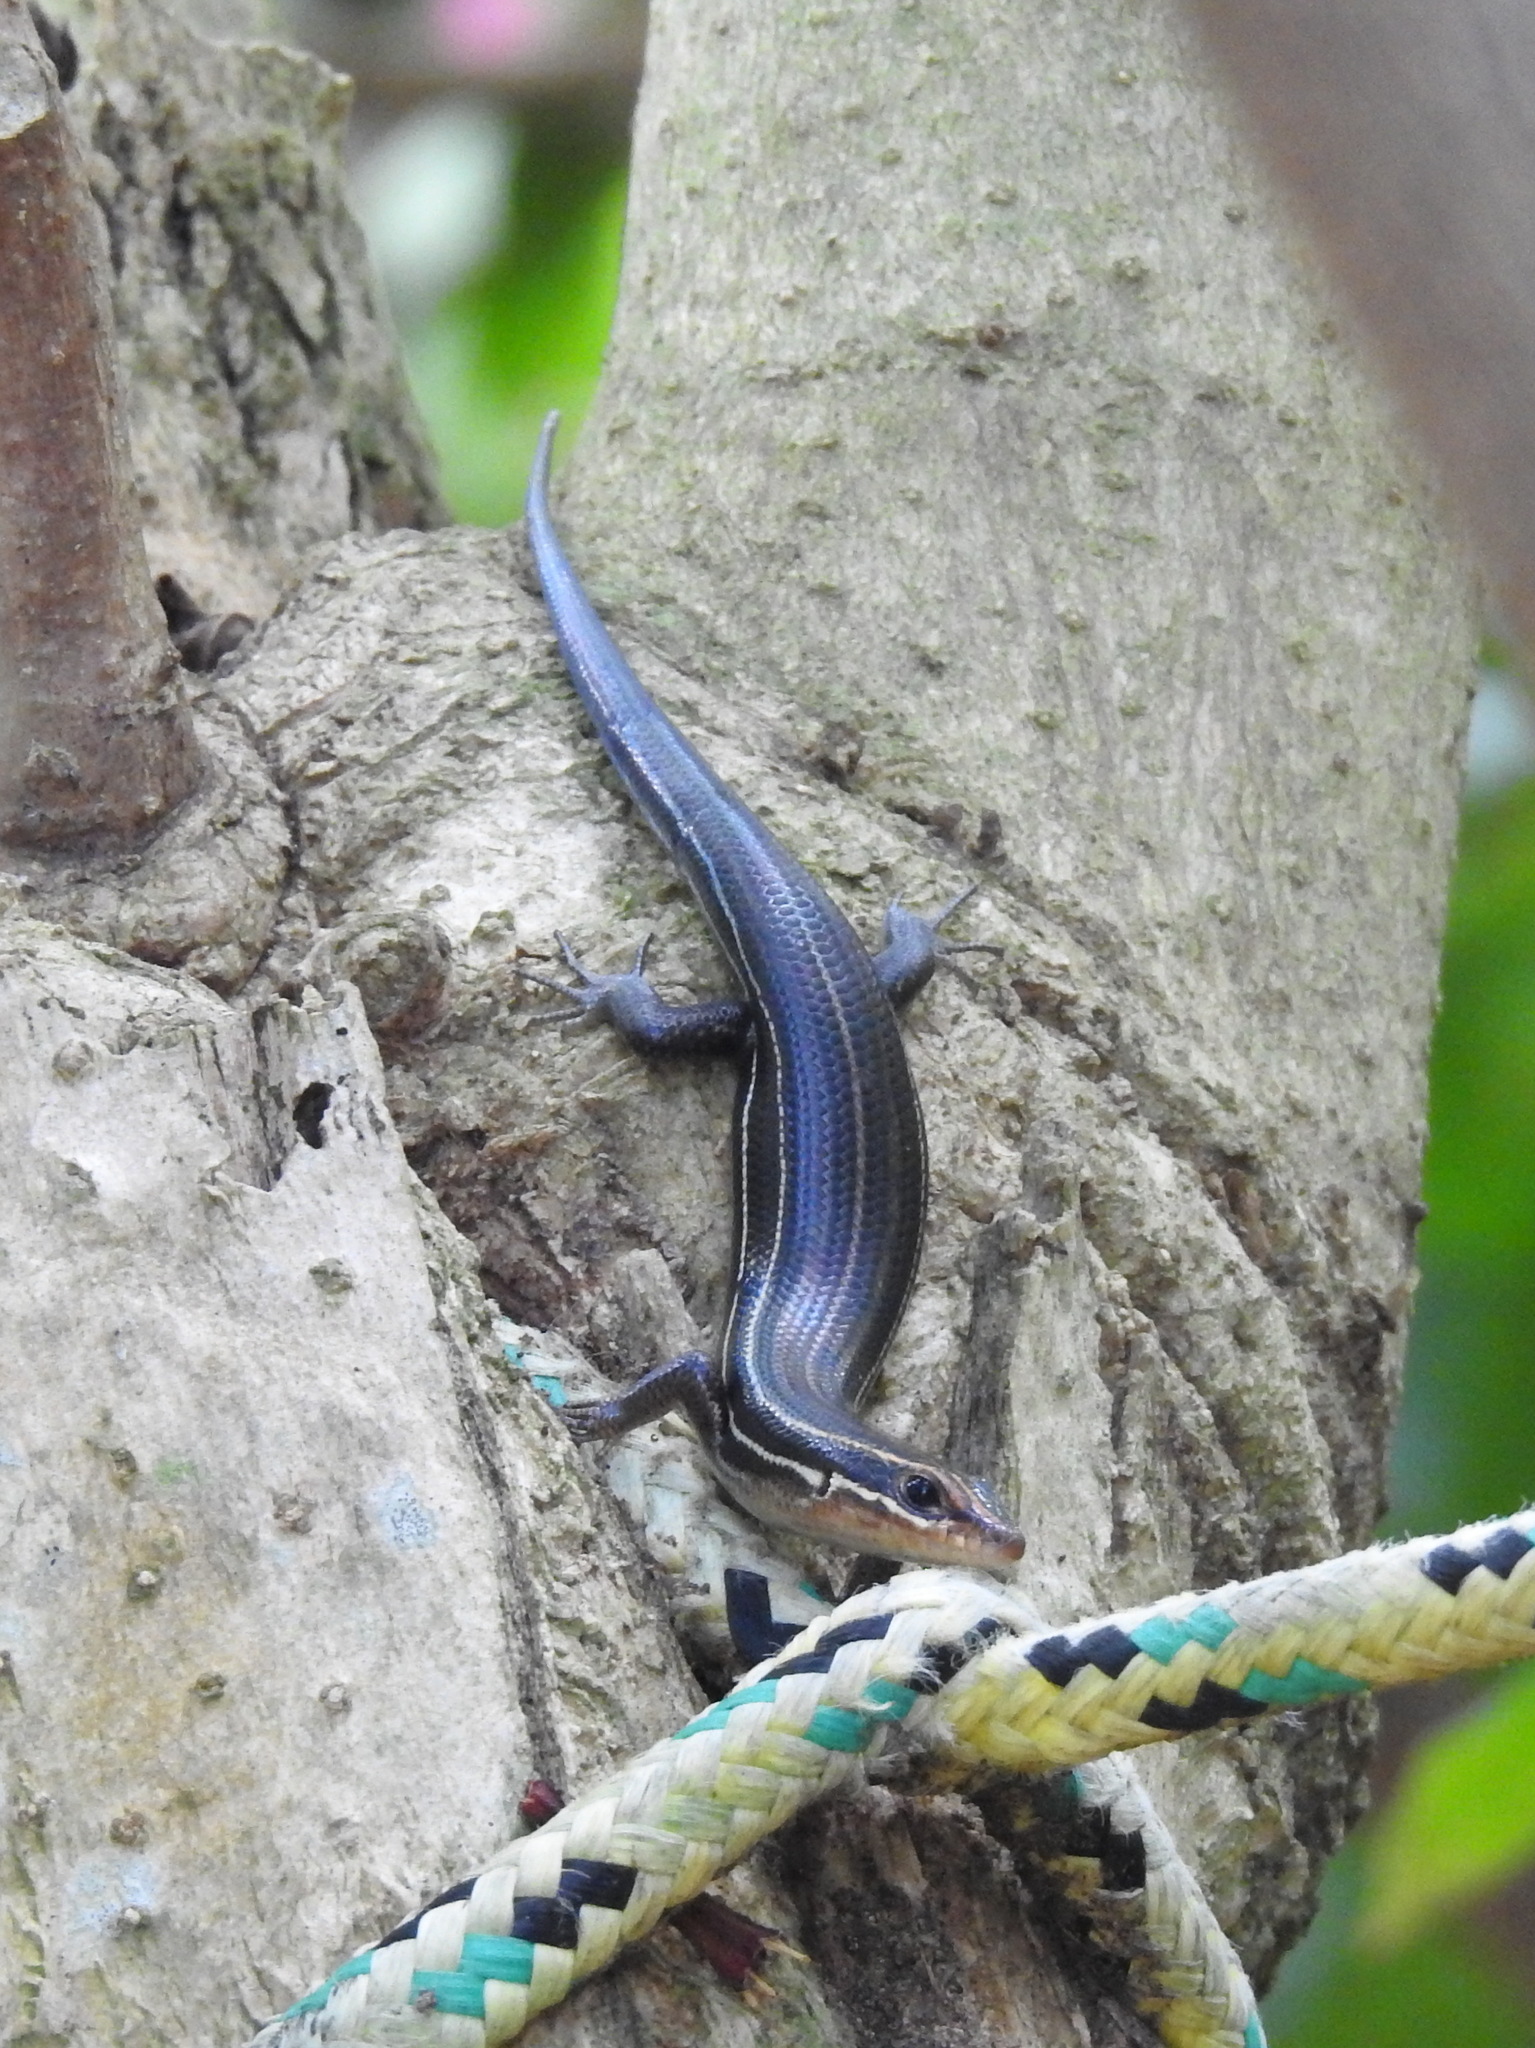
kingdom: Animalia
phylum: Chordata
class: Squamata
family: Scincidae
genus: Plestiodon
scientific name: Plestiodon inexpectatus
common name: Southeastern five-lined skink
